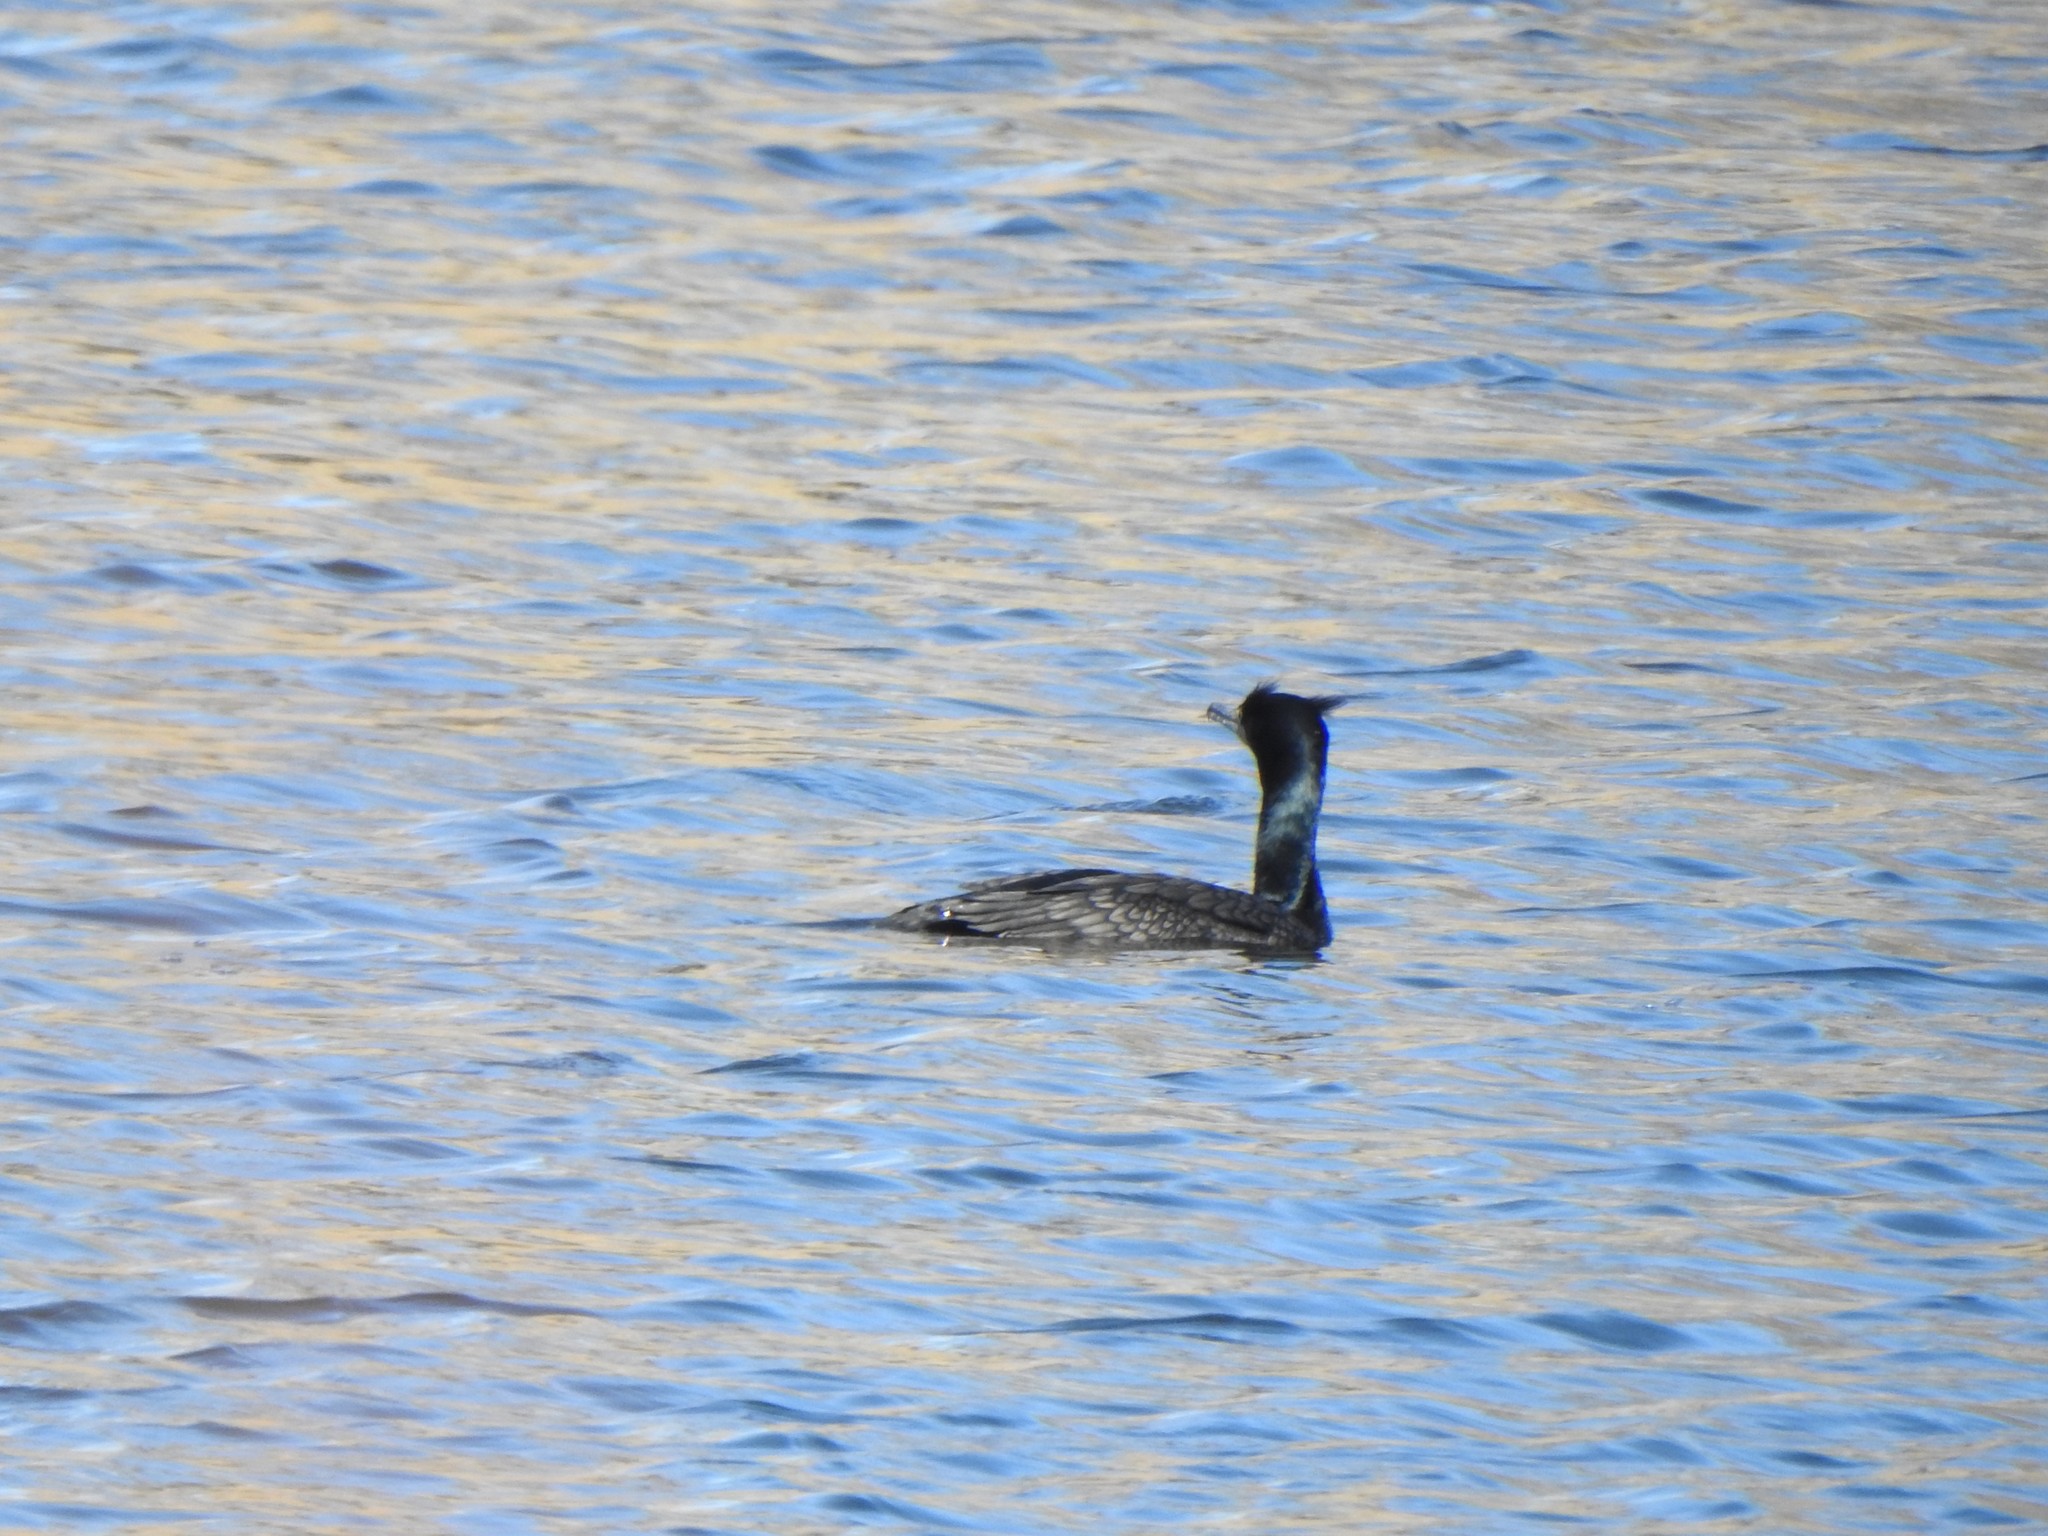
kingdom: Animalia
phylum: Chordata
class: Aves
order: Suliformes
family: Phalacrocoracidae
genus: Phalacrocorax
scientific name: Phalacrocorax auritus
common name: Double-crested cormorant
